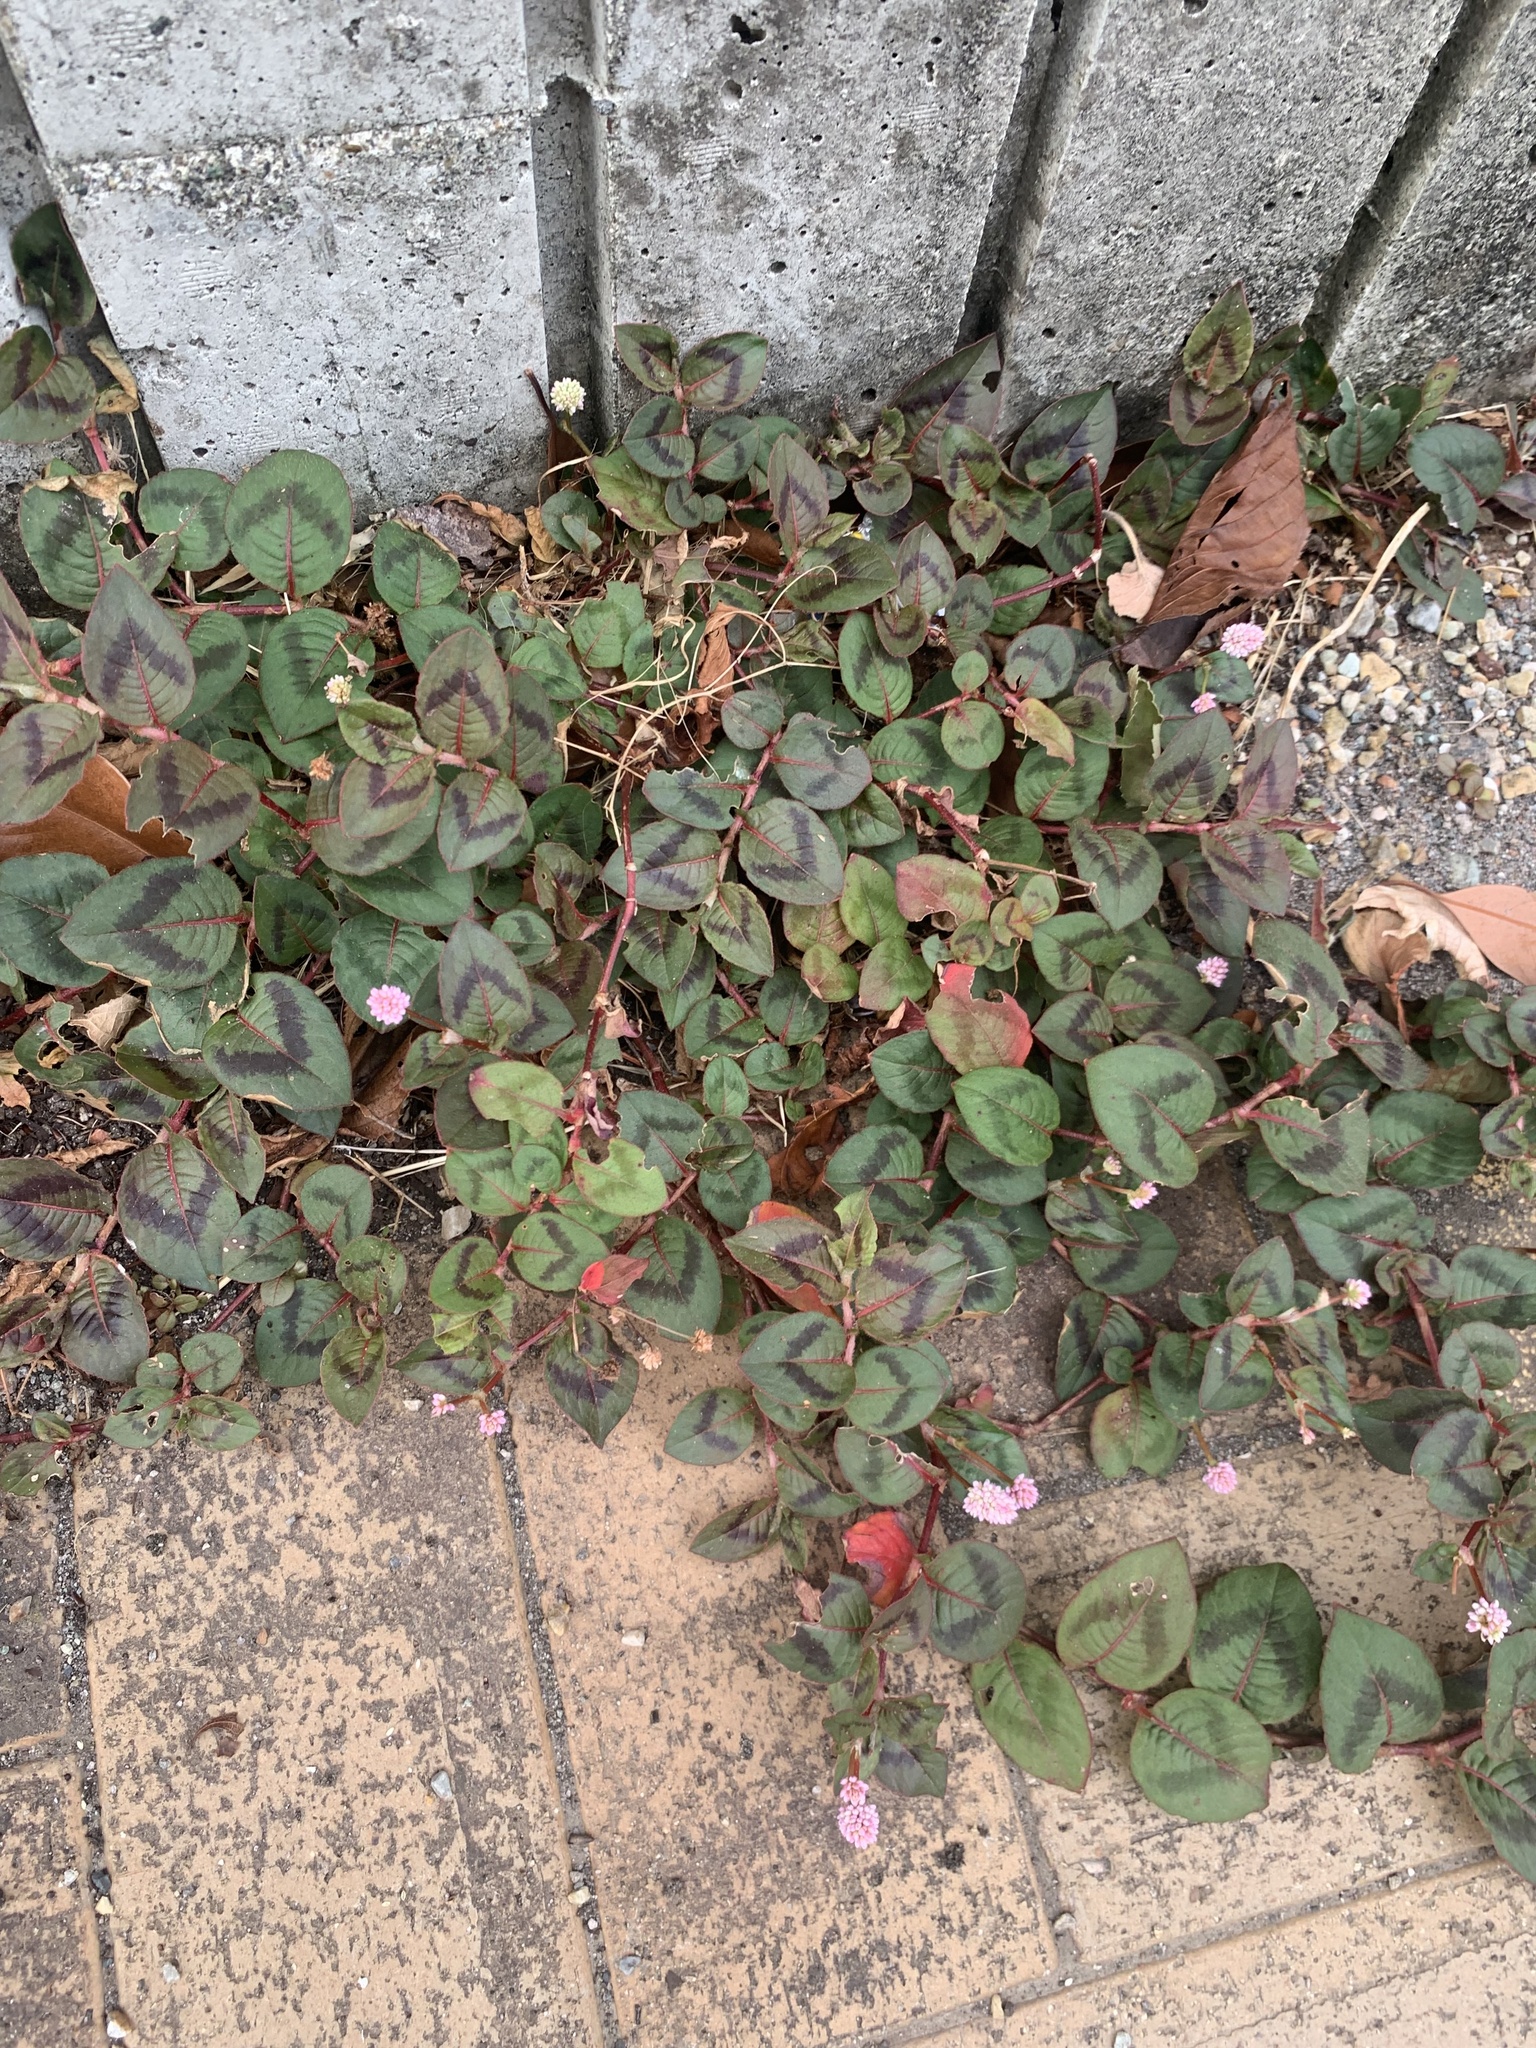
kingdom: Plantae
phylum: Tracheophyta
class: Magnoliopsida
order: Caryophyllales
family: Polygonaceae
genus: Persicaria
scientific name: Persicaria capitata
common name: Pinkhead smartweed
